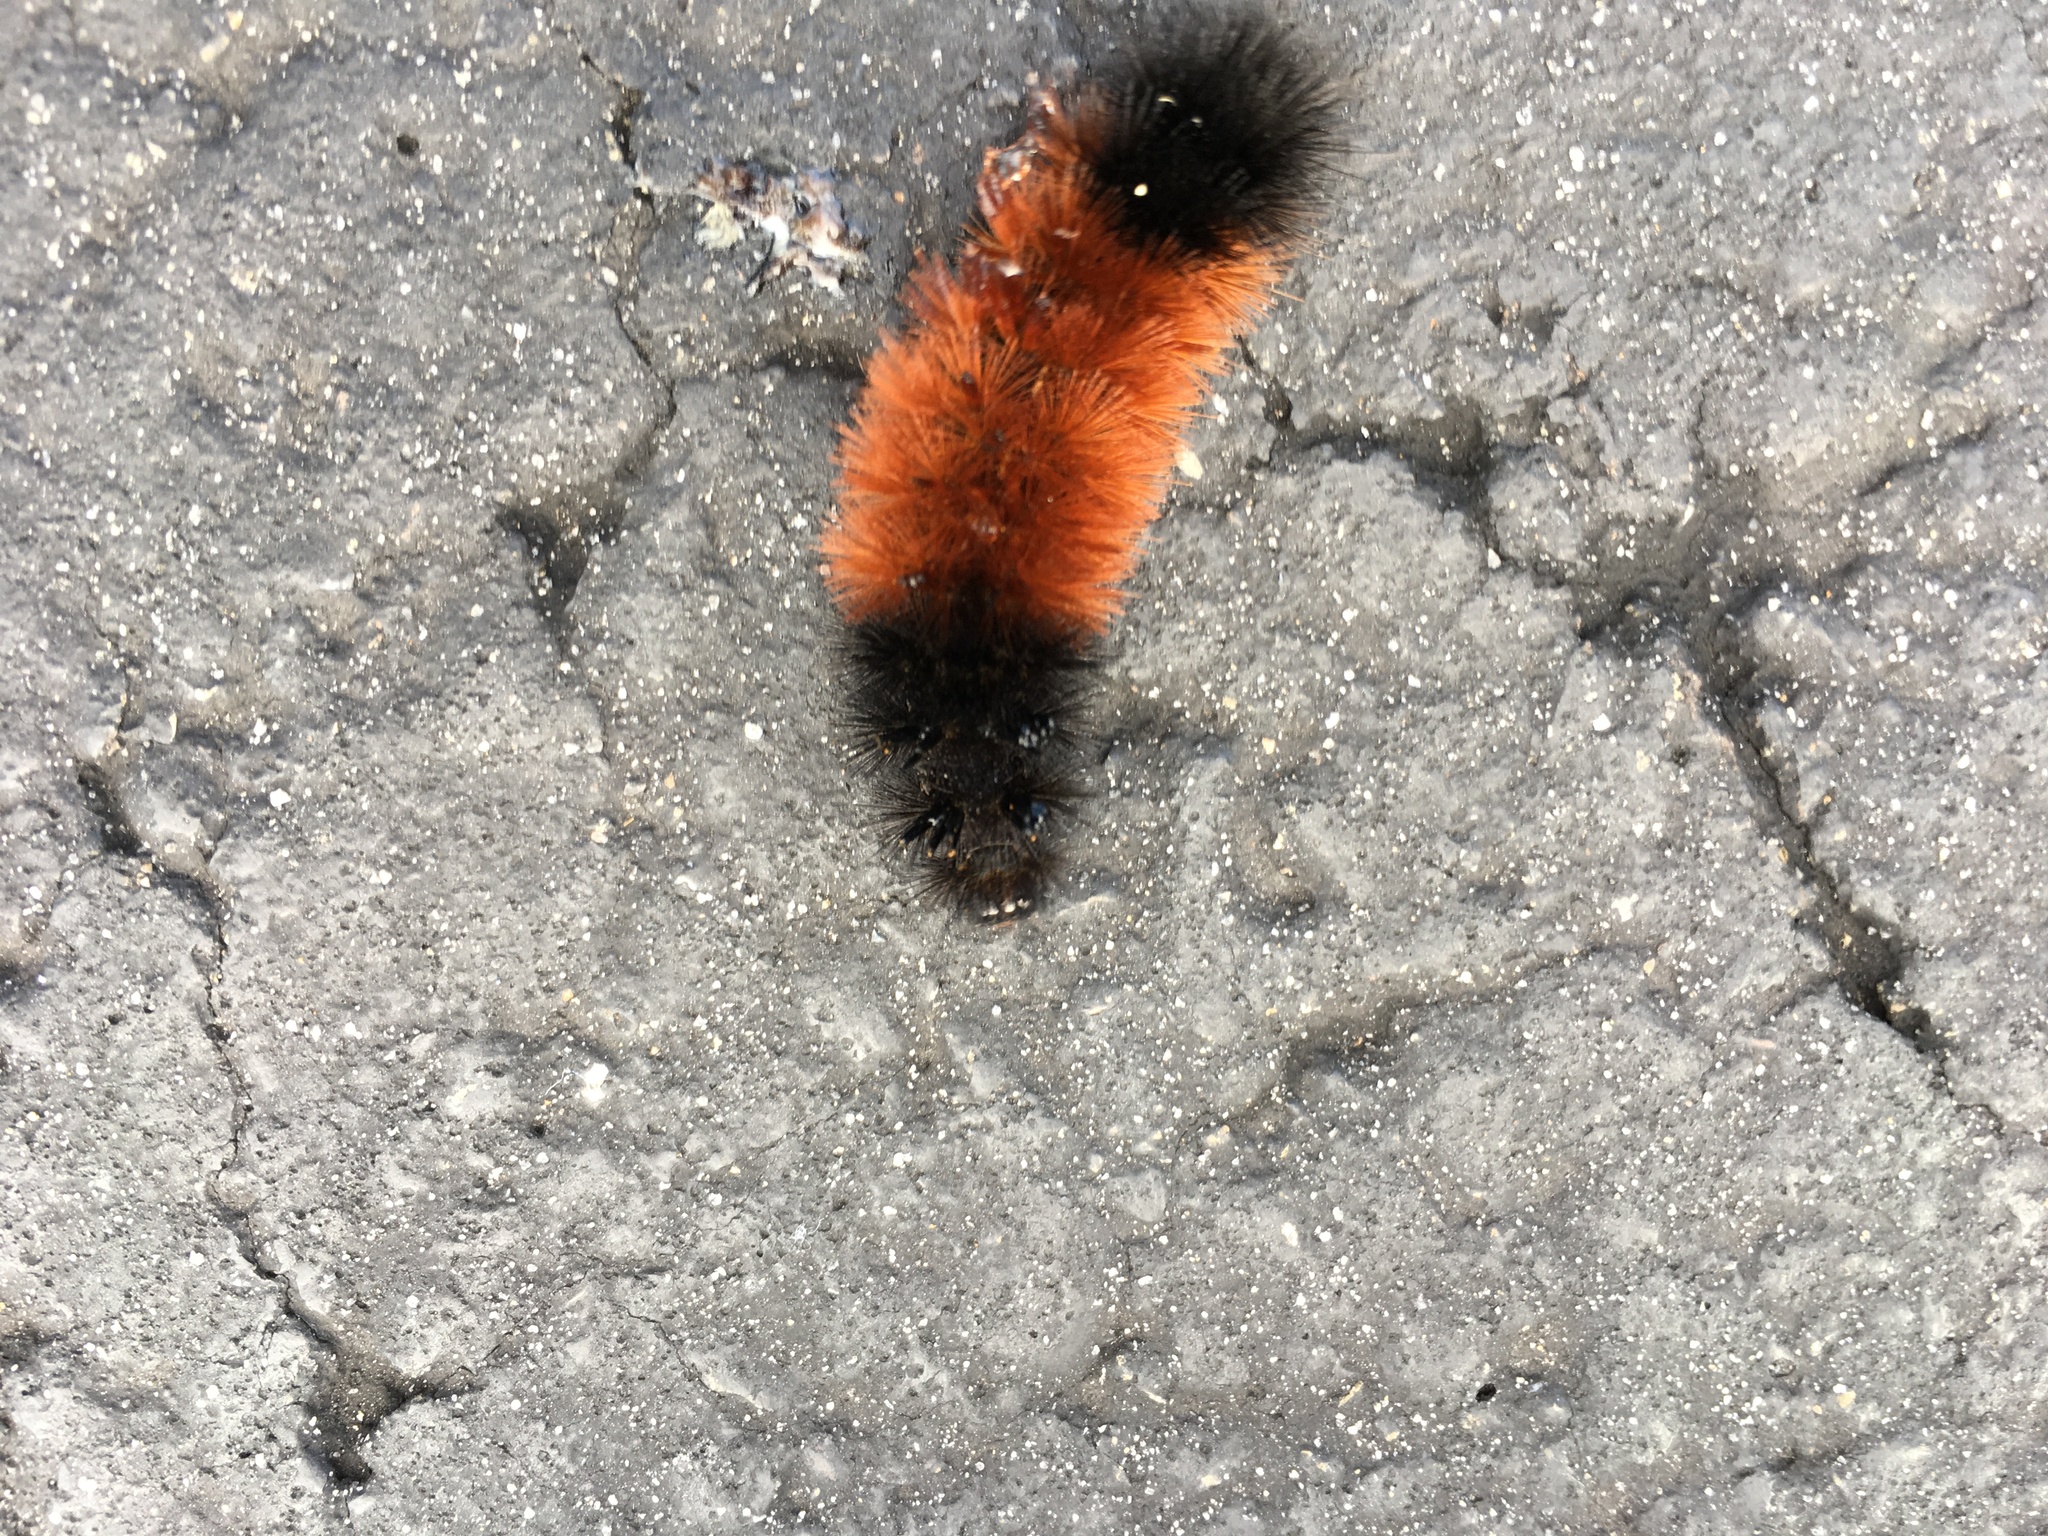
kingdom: Animalia
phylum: Arthropoda
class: Insecta
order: Lepidoptera
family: Erebidae
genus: Pyrrharctia
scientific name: Pyrrharctia isabella
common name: Isabella tiger moth
